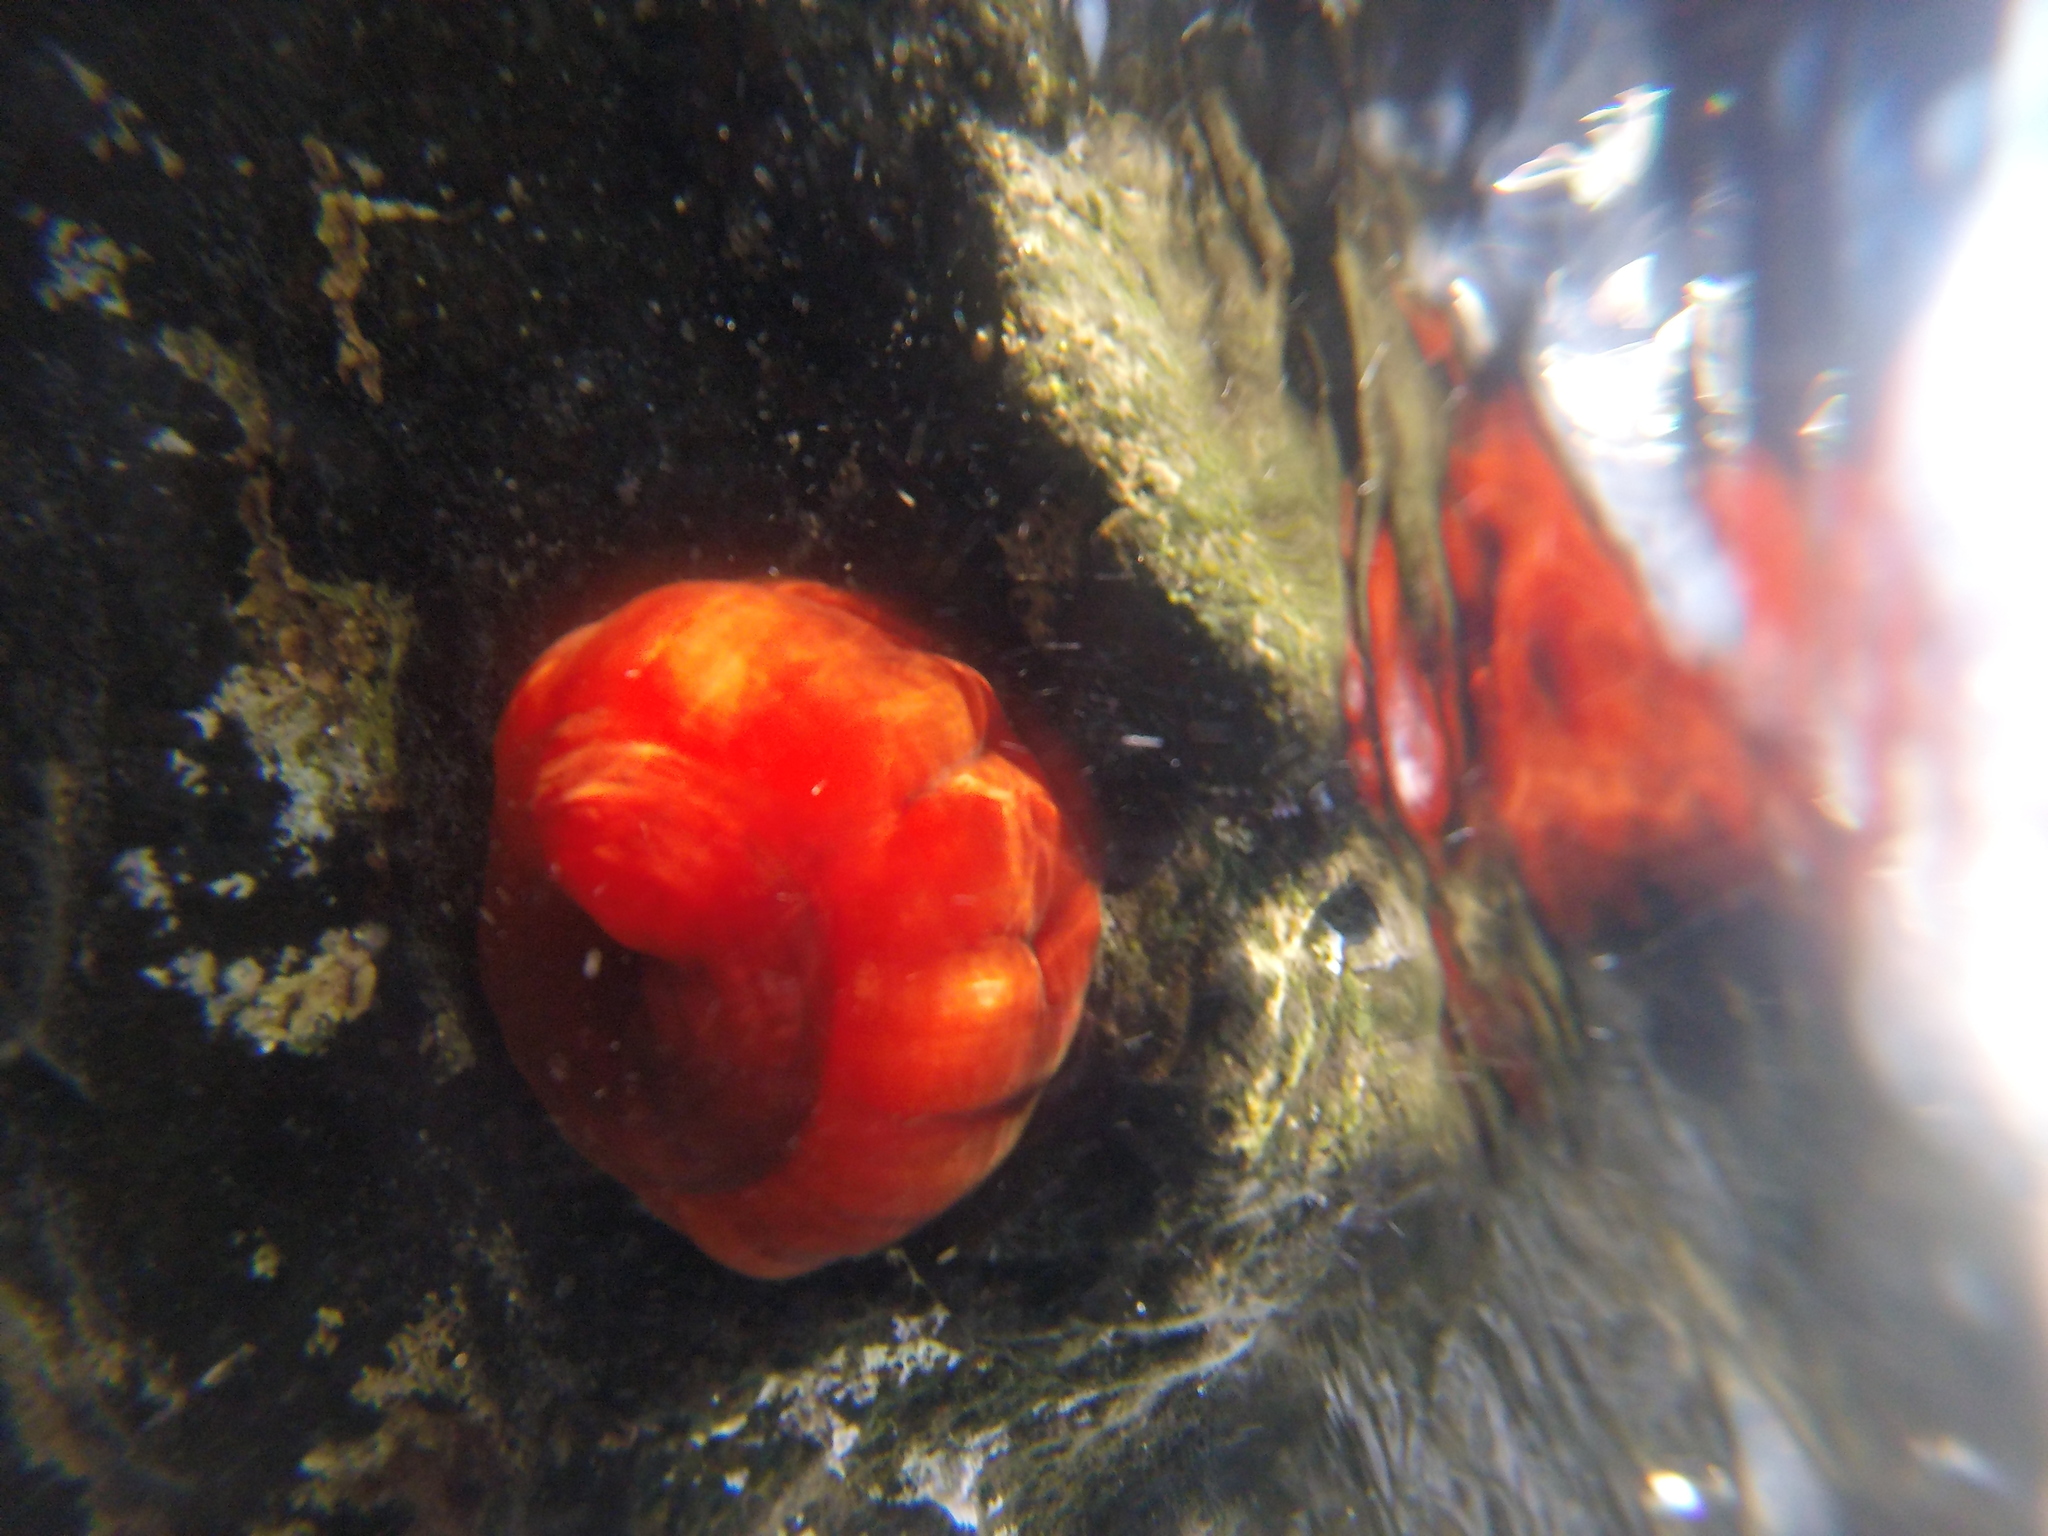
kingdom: Animalia
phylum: Cnidaria
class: Anthozoa
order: Actiniaria
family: Actiniidae
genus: Actinia
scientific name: Actinia mediterranea
